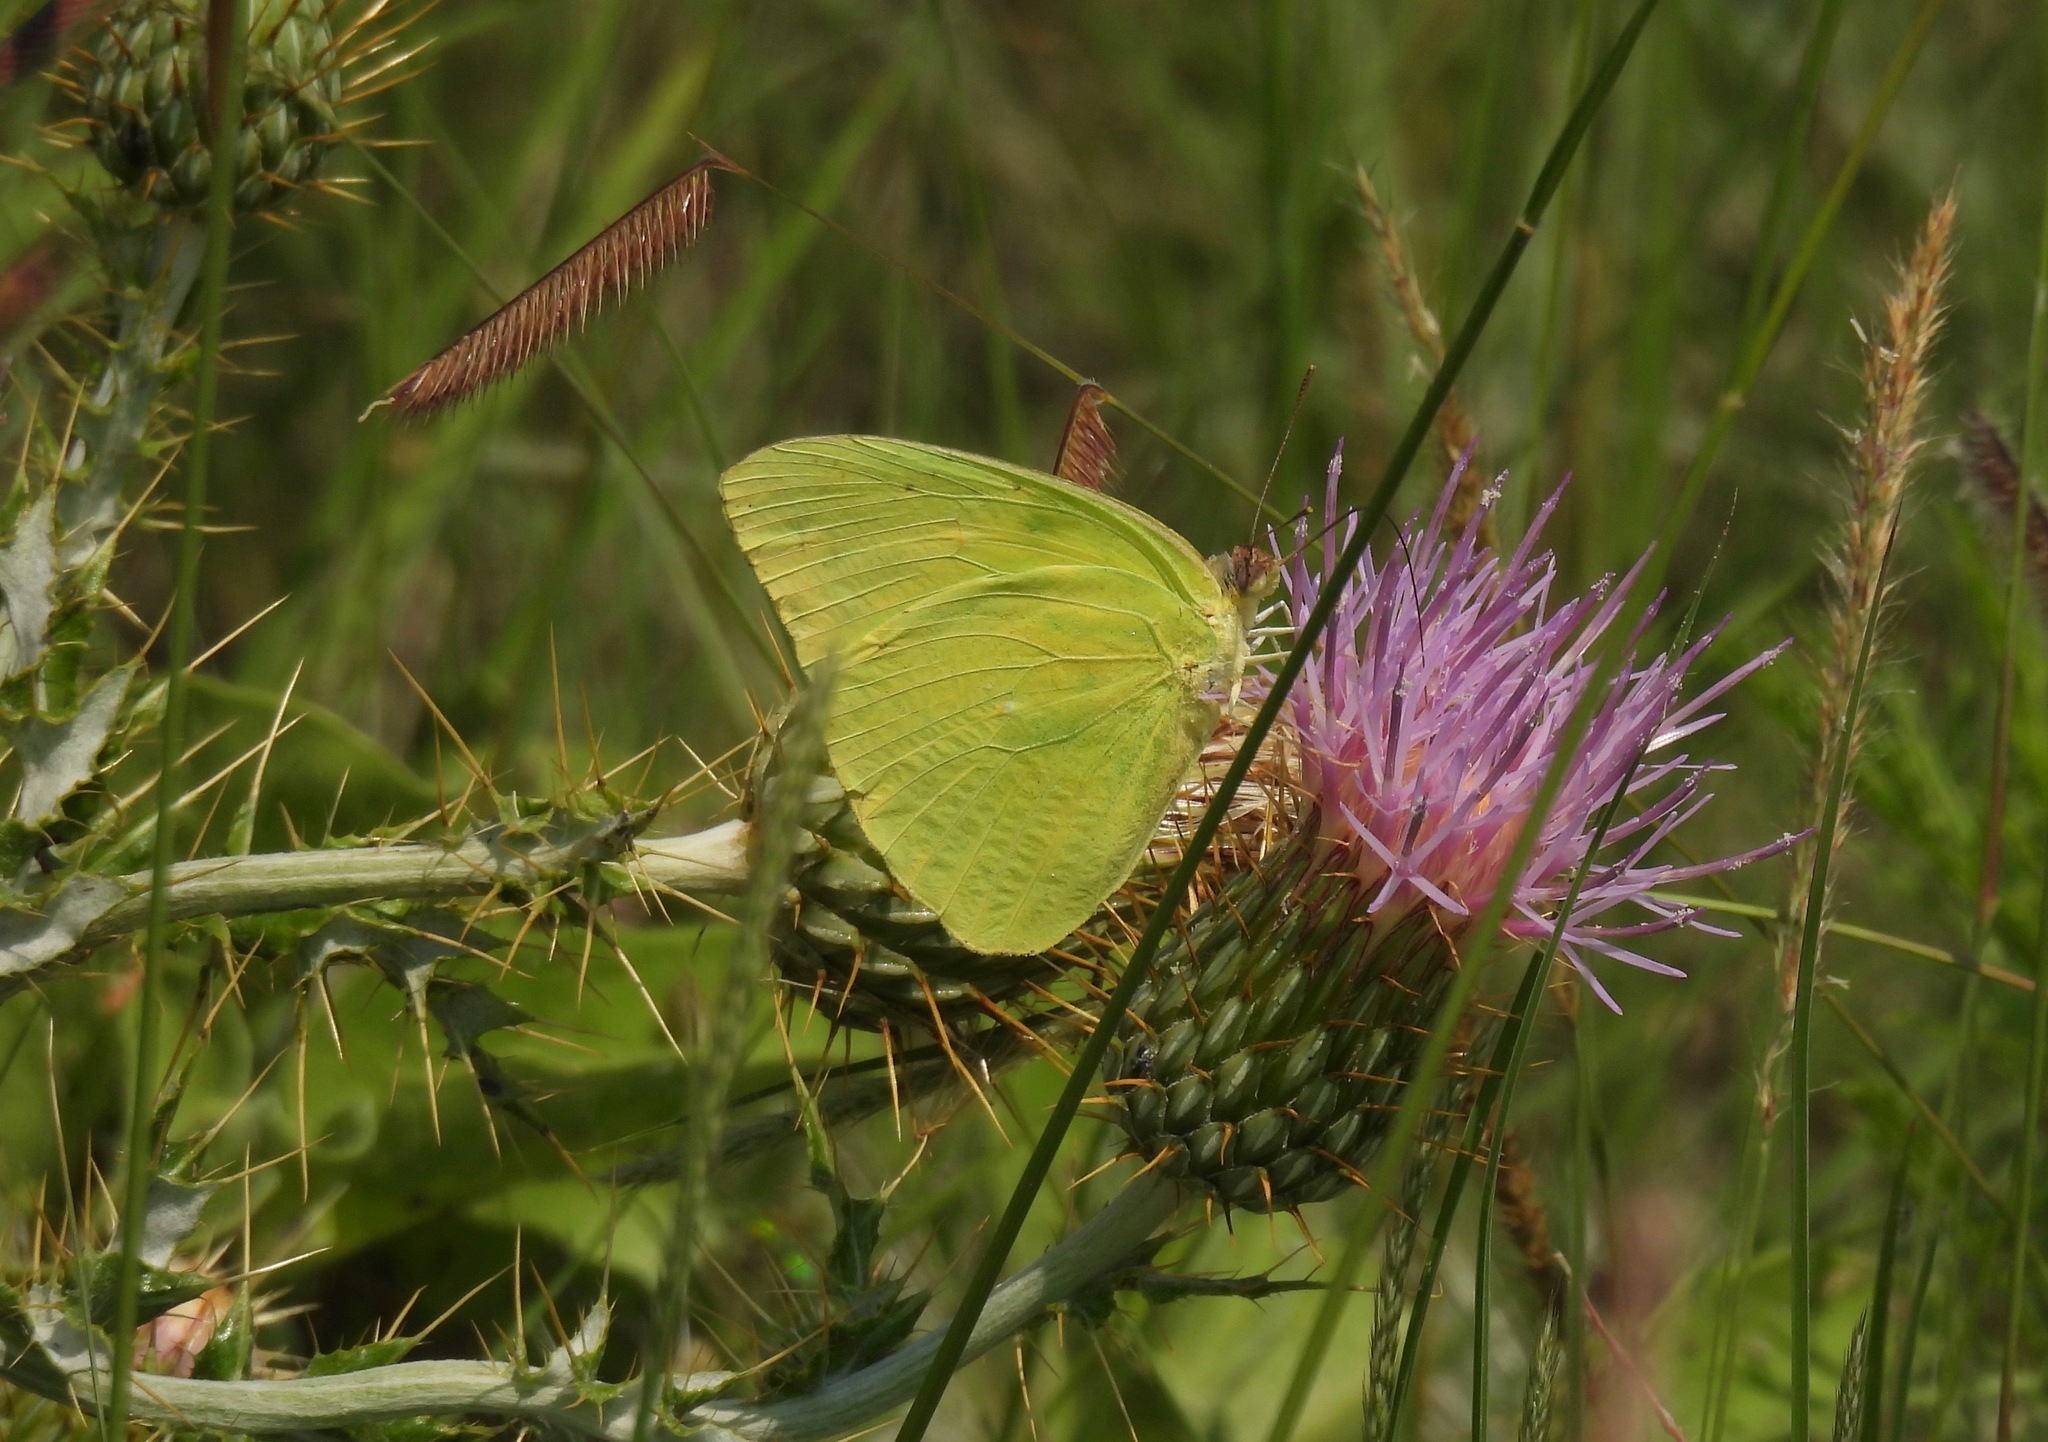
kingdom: Animalia
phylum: Arthropoda
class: Insecta
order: Lepidoptera
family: Pieridae
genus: Phoebis
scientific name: Phoebis sennae
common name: Cloudless sulphur
